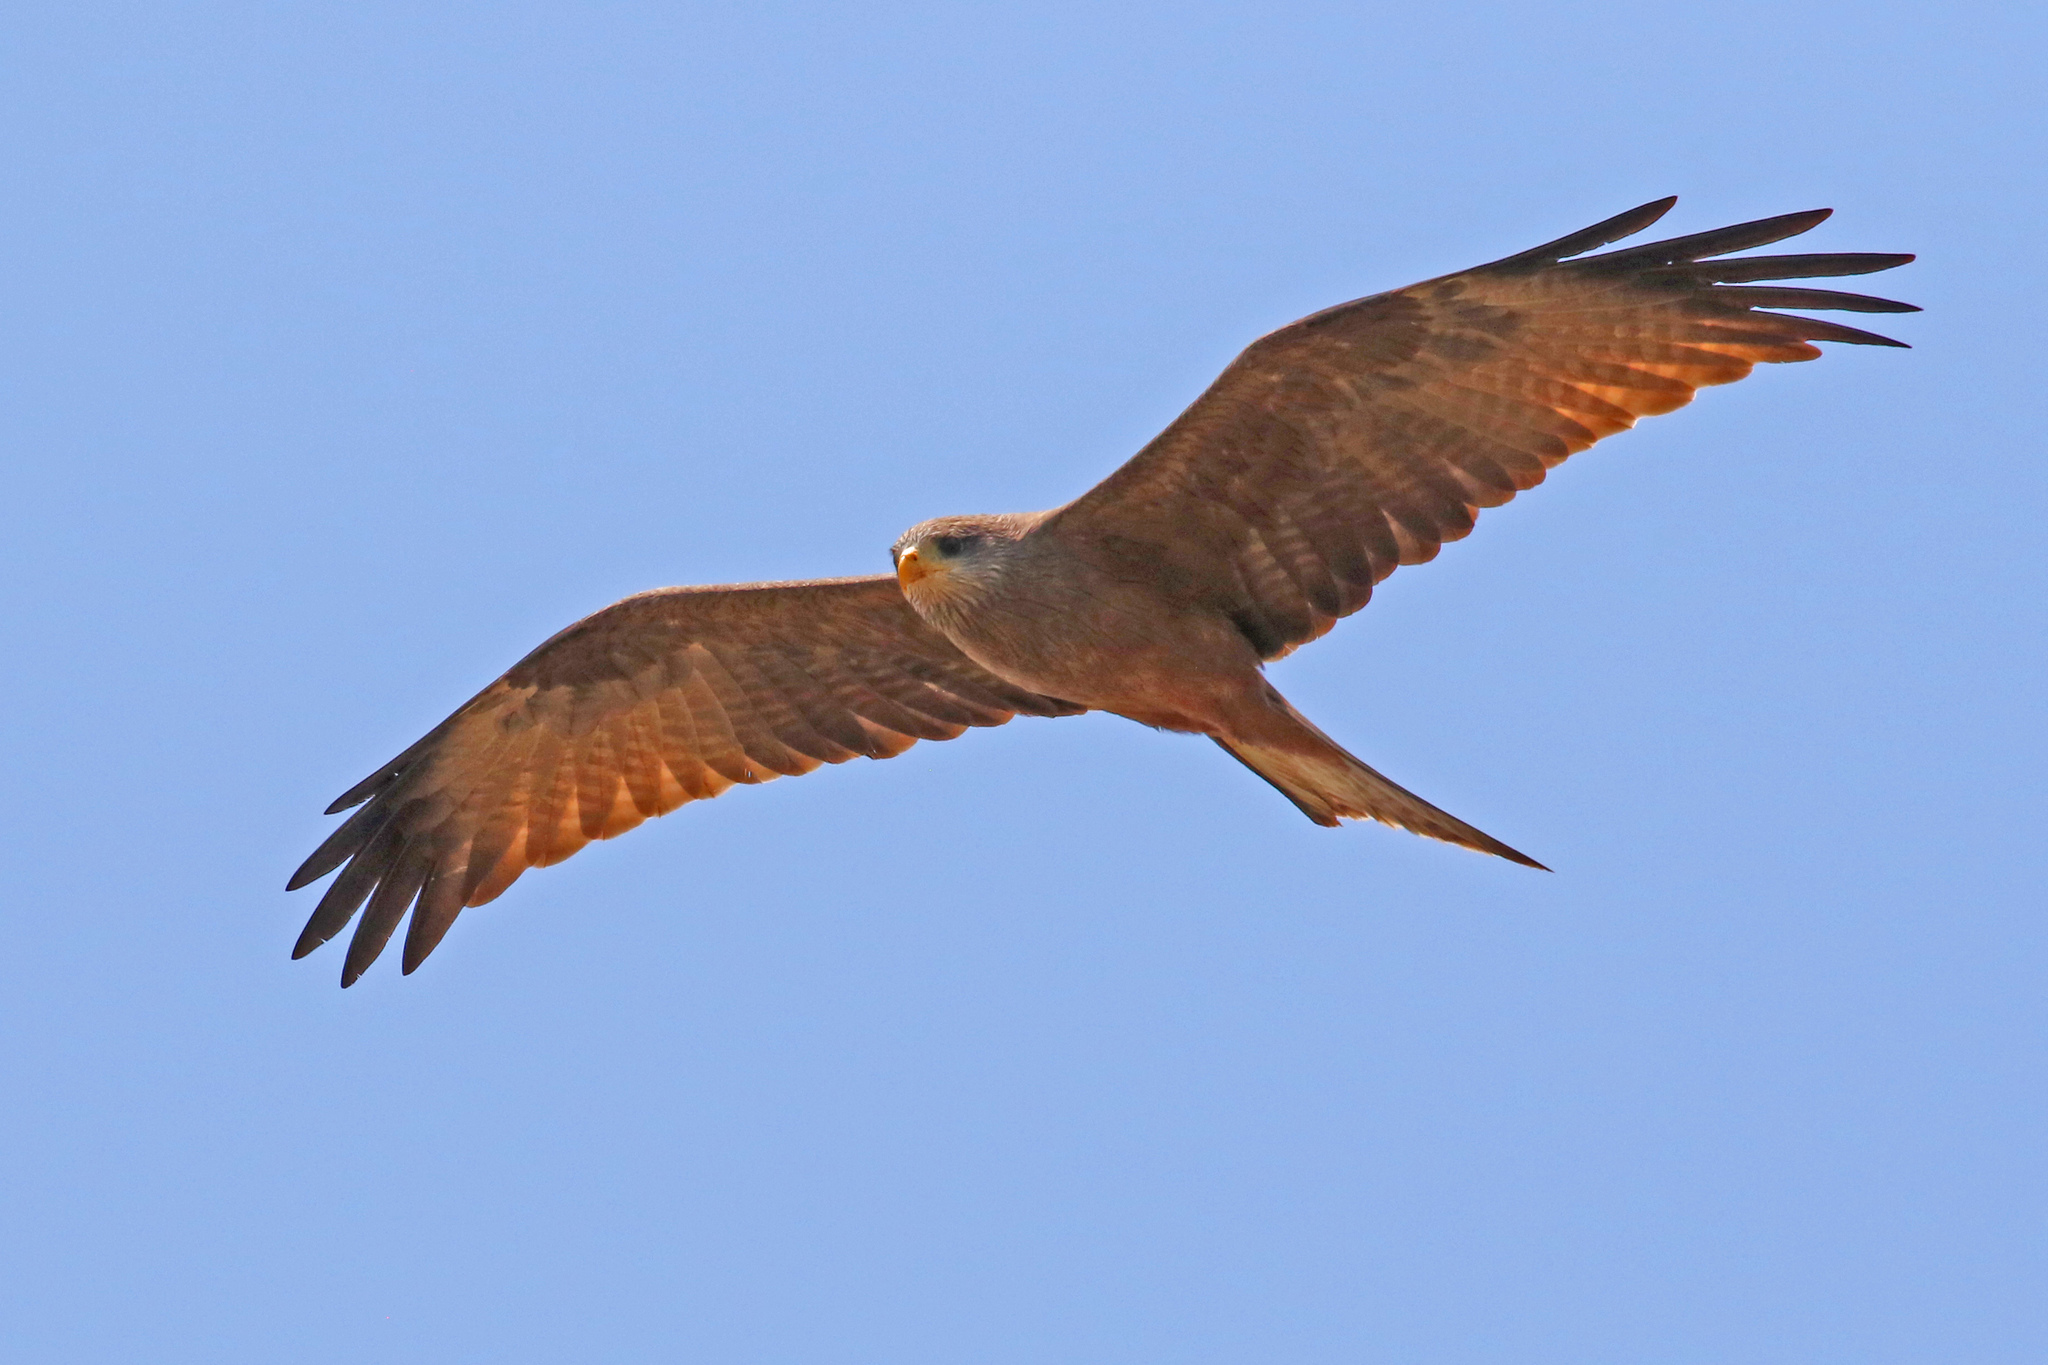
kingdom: Animalia
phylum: Chordata
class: Aves
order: Accipitriformes
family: Accipitridae
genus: Milvus
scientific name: Milvus migrans
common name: Black kite
